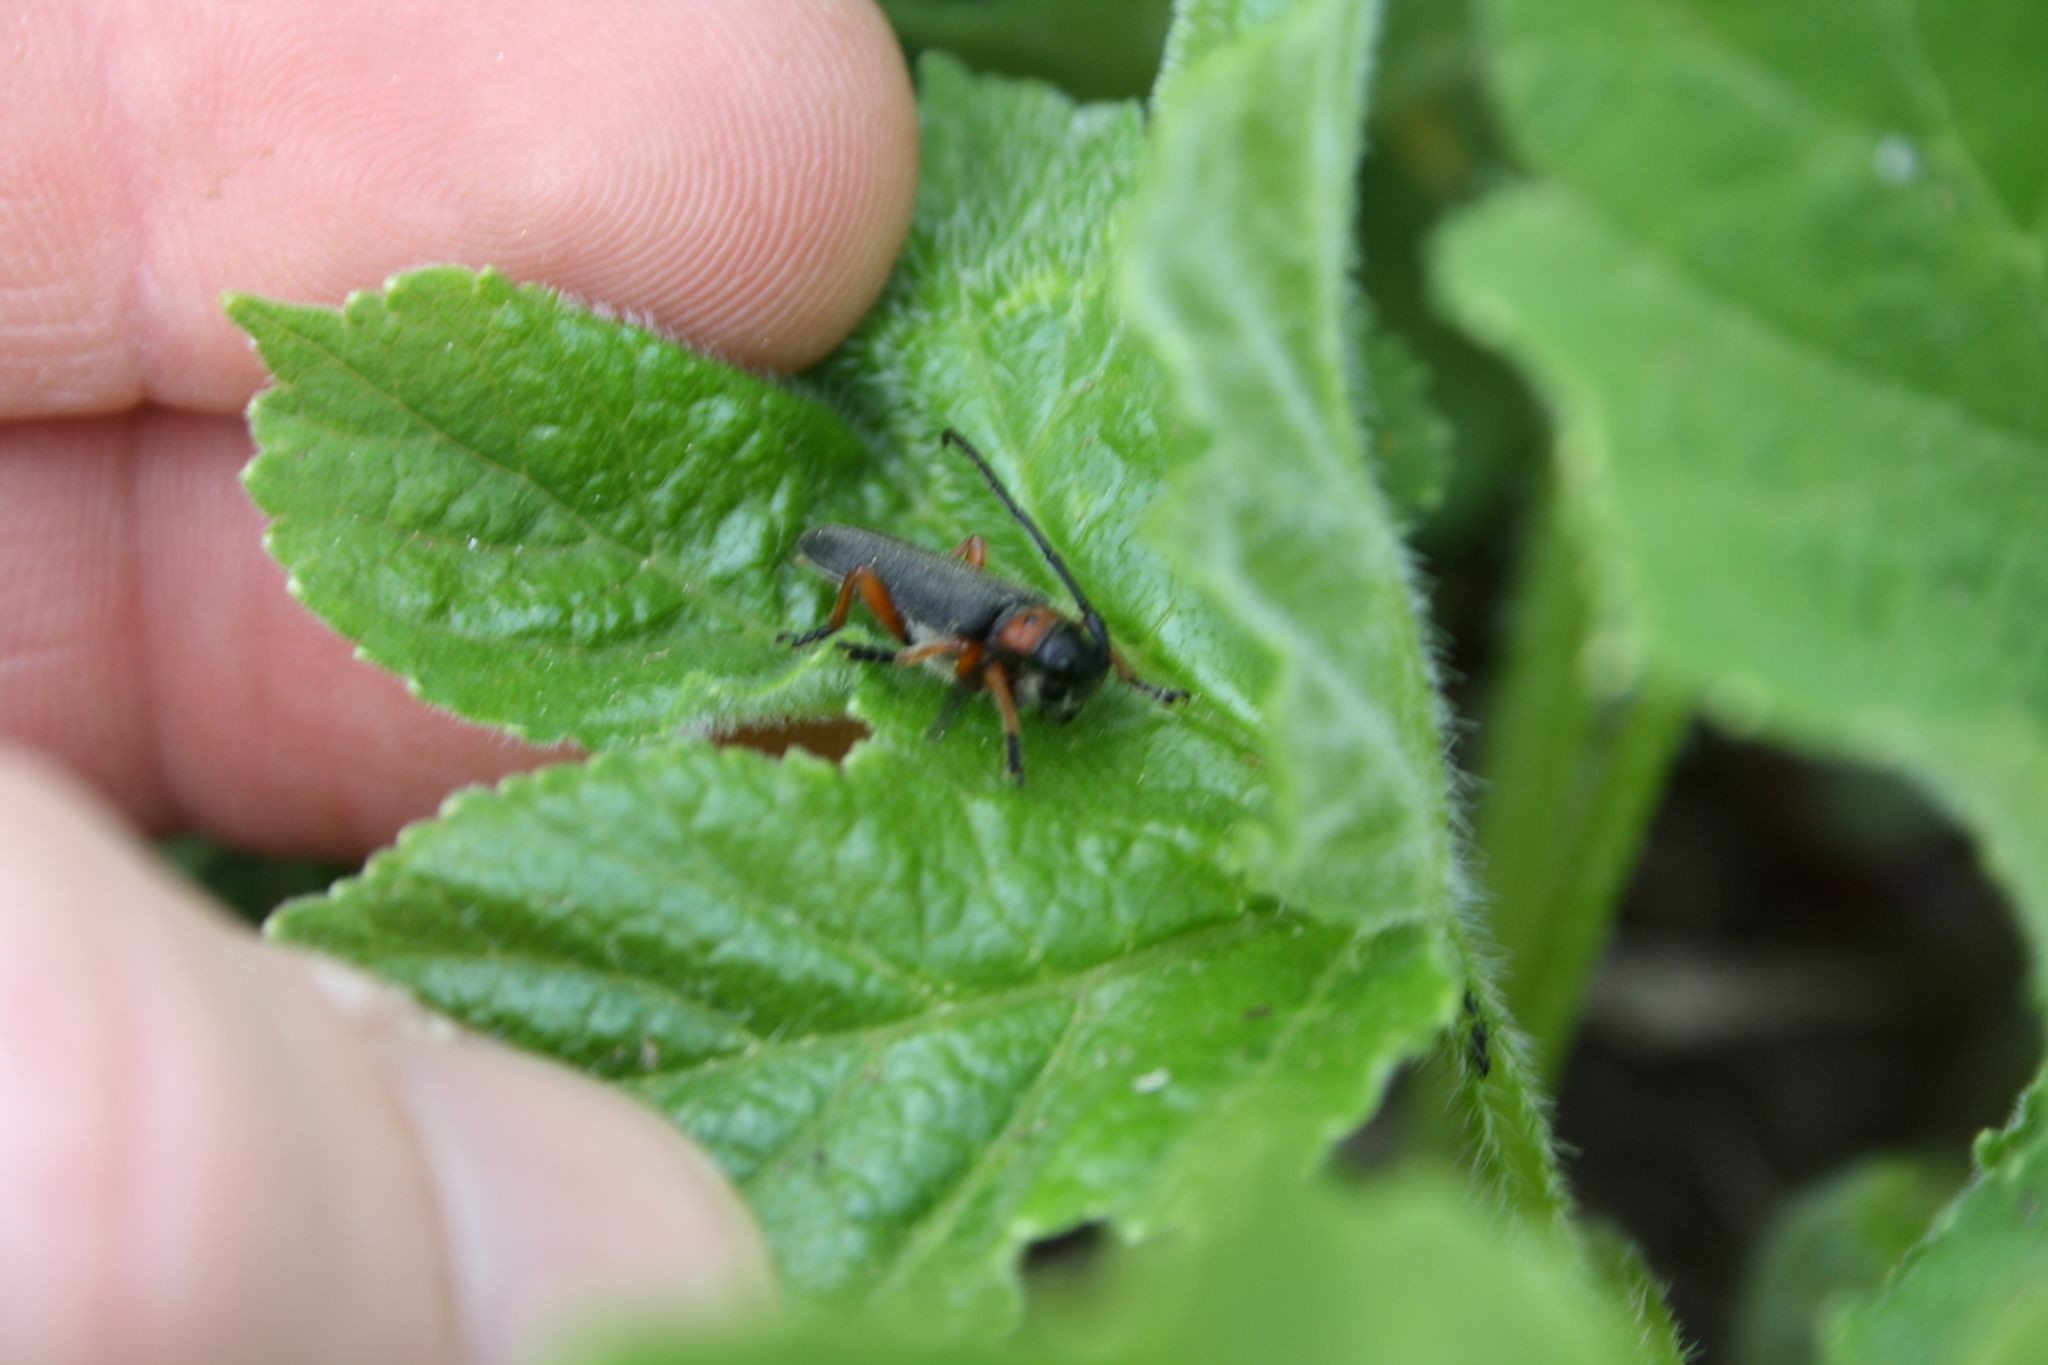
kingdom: Animalia
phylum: Arthropoda
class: Insecta
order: Coleoptera
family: Cerambycidae
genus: Phytoecia
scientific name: Phytoecia affinis
